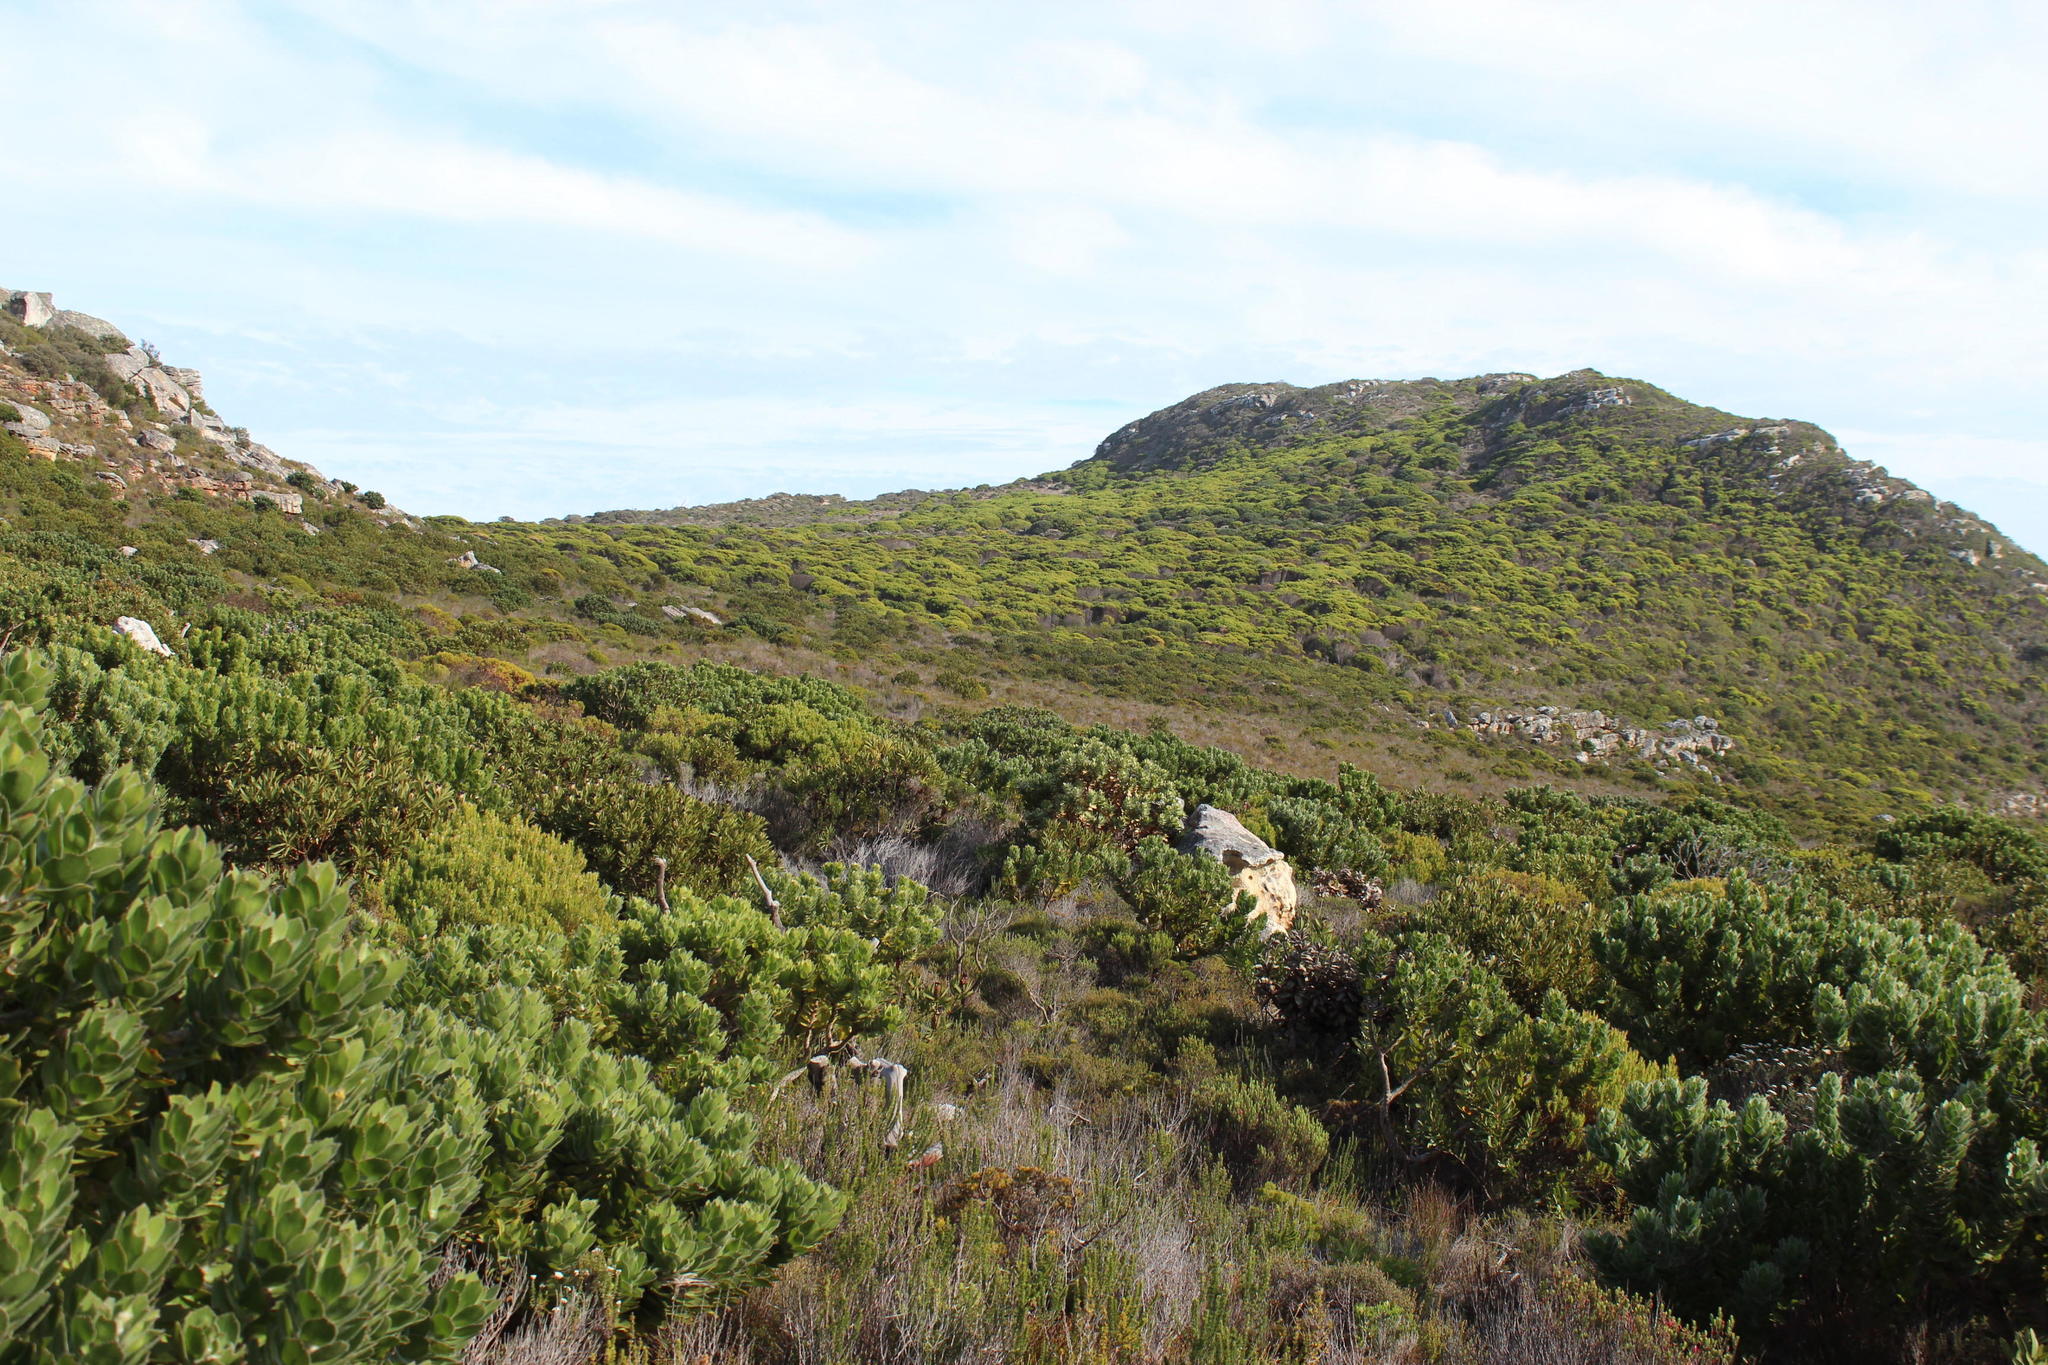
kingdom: Plantae
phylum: Tracheophyta
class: Magnoliopsida
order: Proteales
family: Proteaceae
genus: Leucadendron
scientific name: Leucadendron coniferum
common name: Dune conebush
